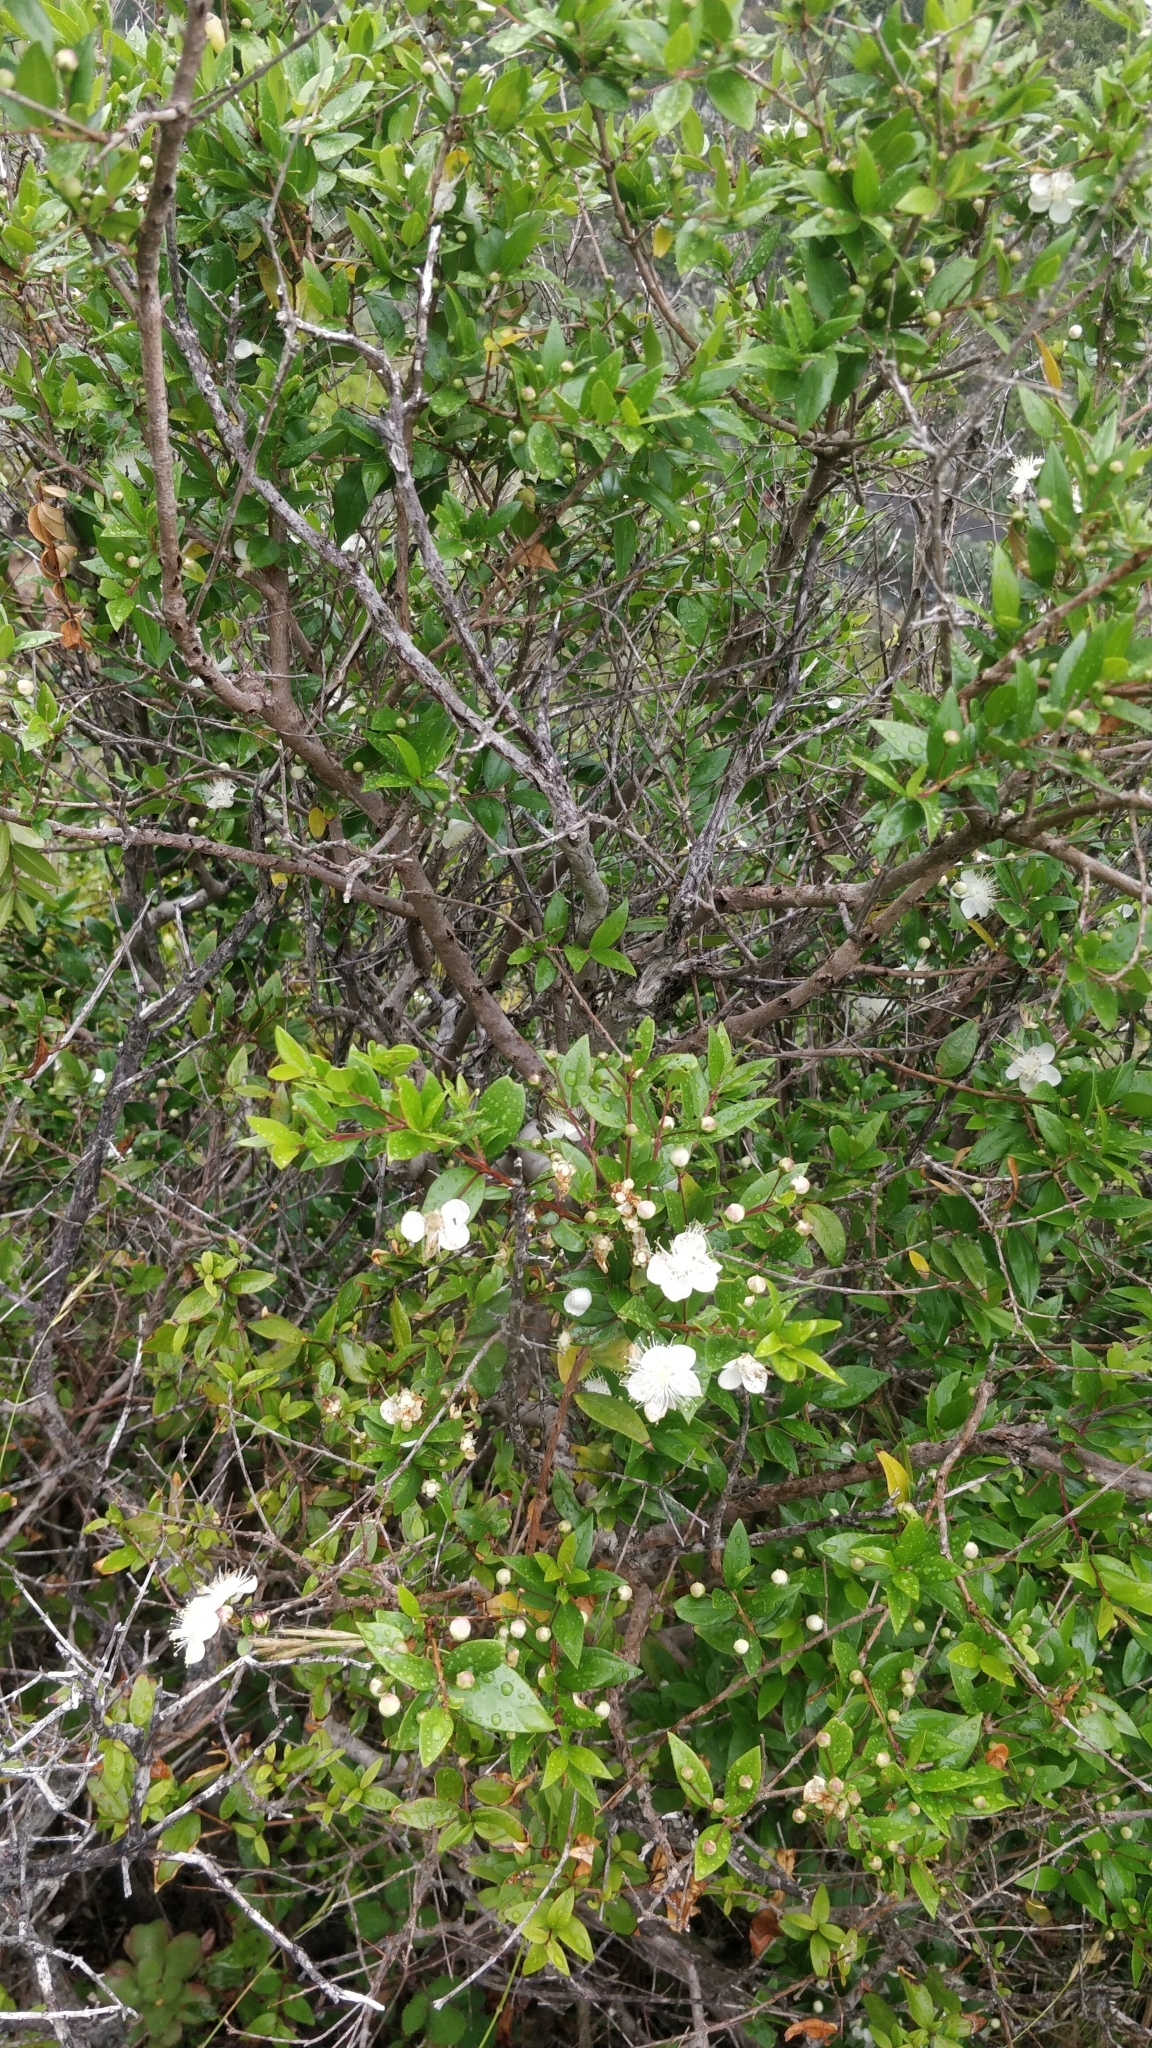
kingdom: Plantae
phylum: Tracheophyta
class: Magnoliopsida
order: Myrtales
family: Myrtaceae
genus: Myrtus
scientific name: Myrtus communis
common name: Myrtle
